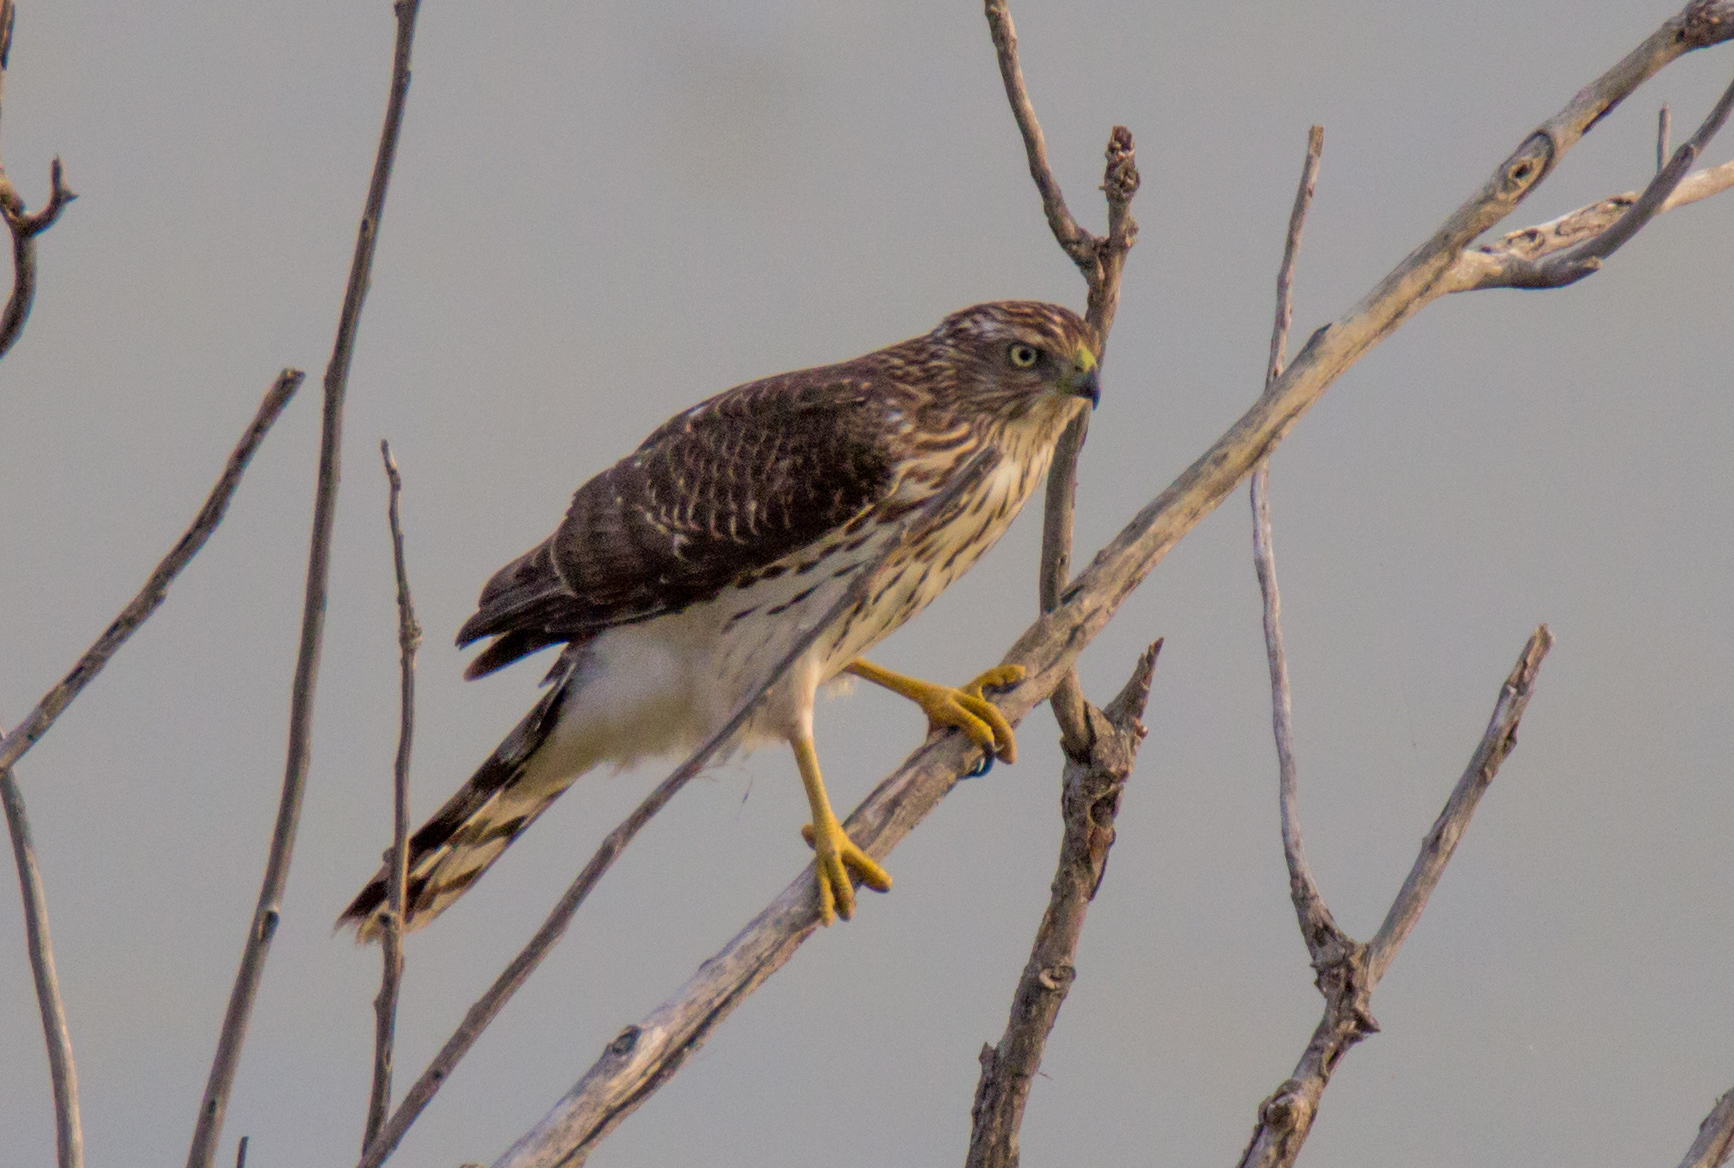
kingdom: Animalia
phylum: Chordata
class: Aves
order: Accipitriformes
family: Accipitridae
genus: Accipiter
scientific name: Accipiter cooperii
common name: Cooper's hawk
